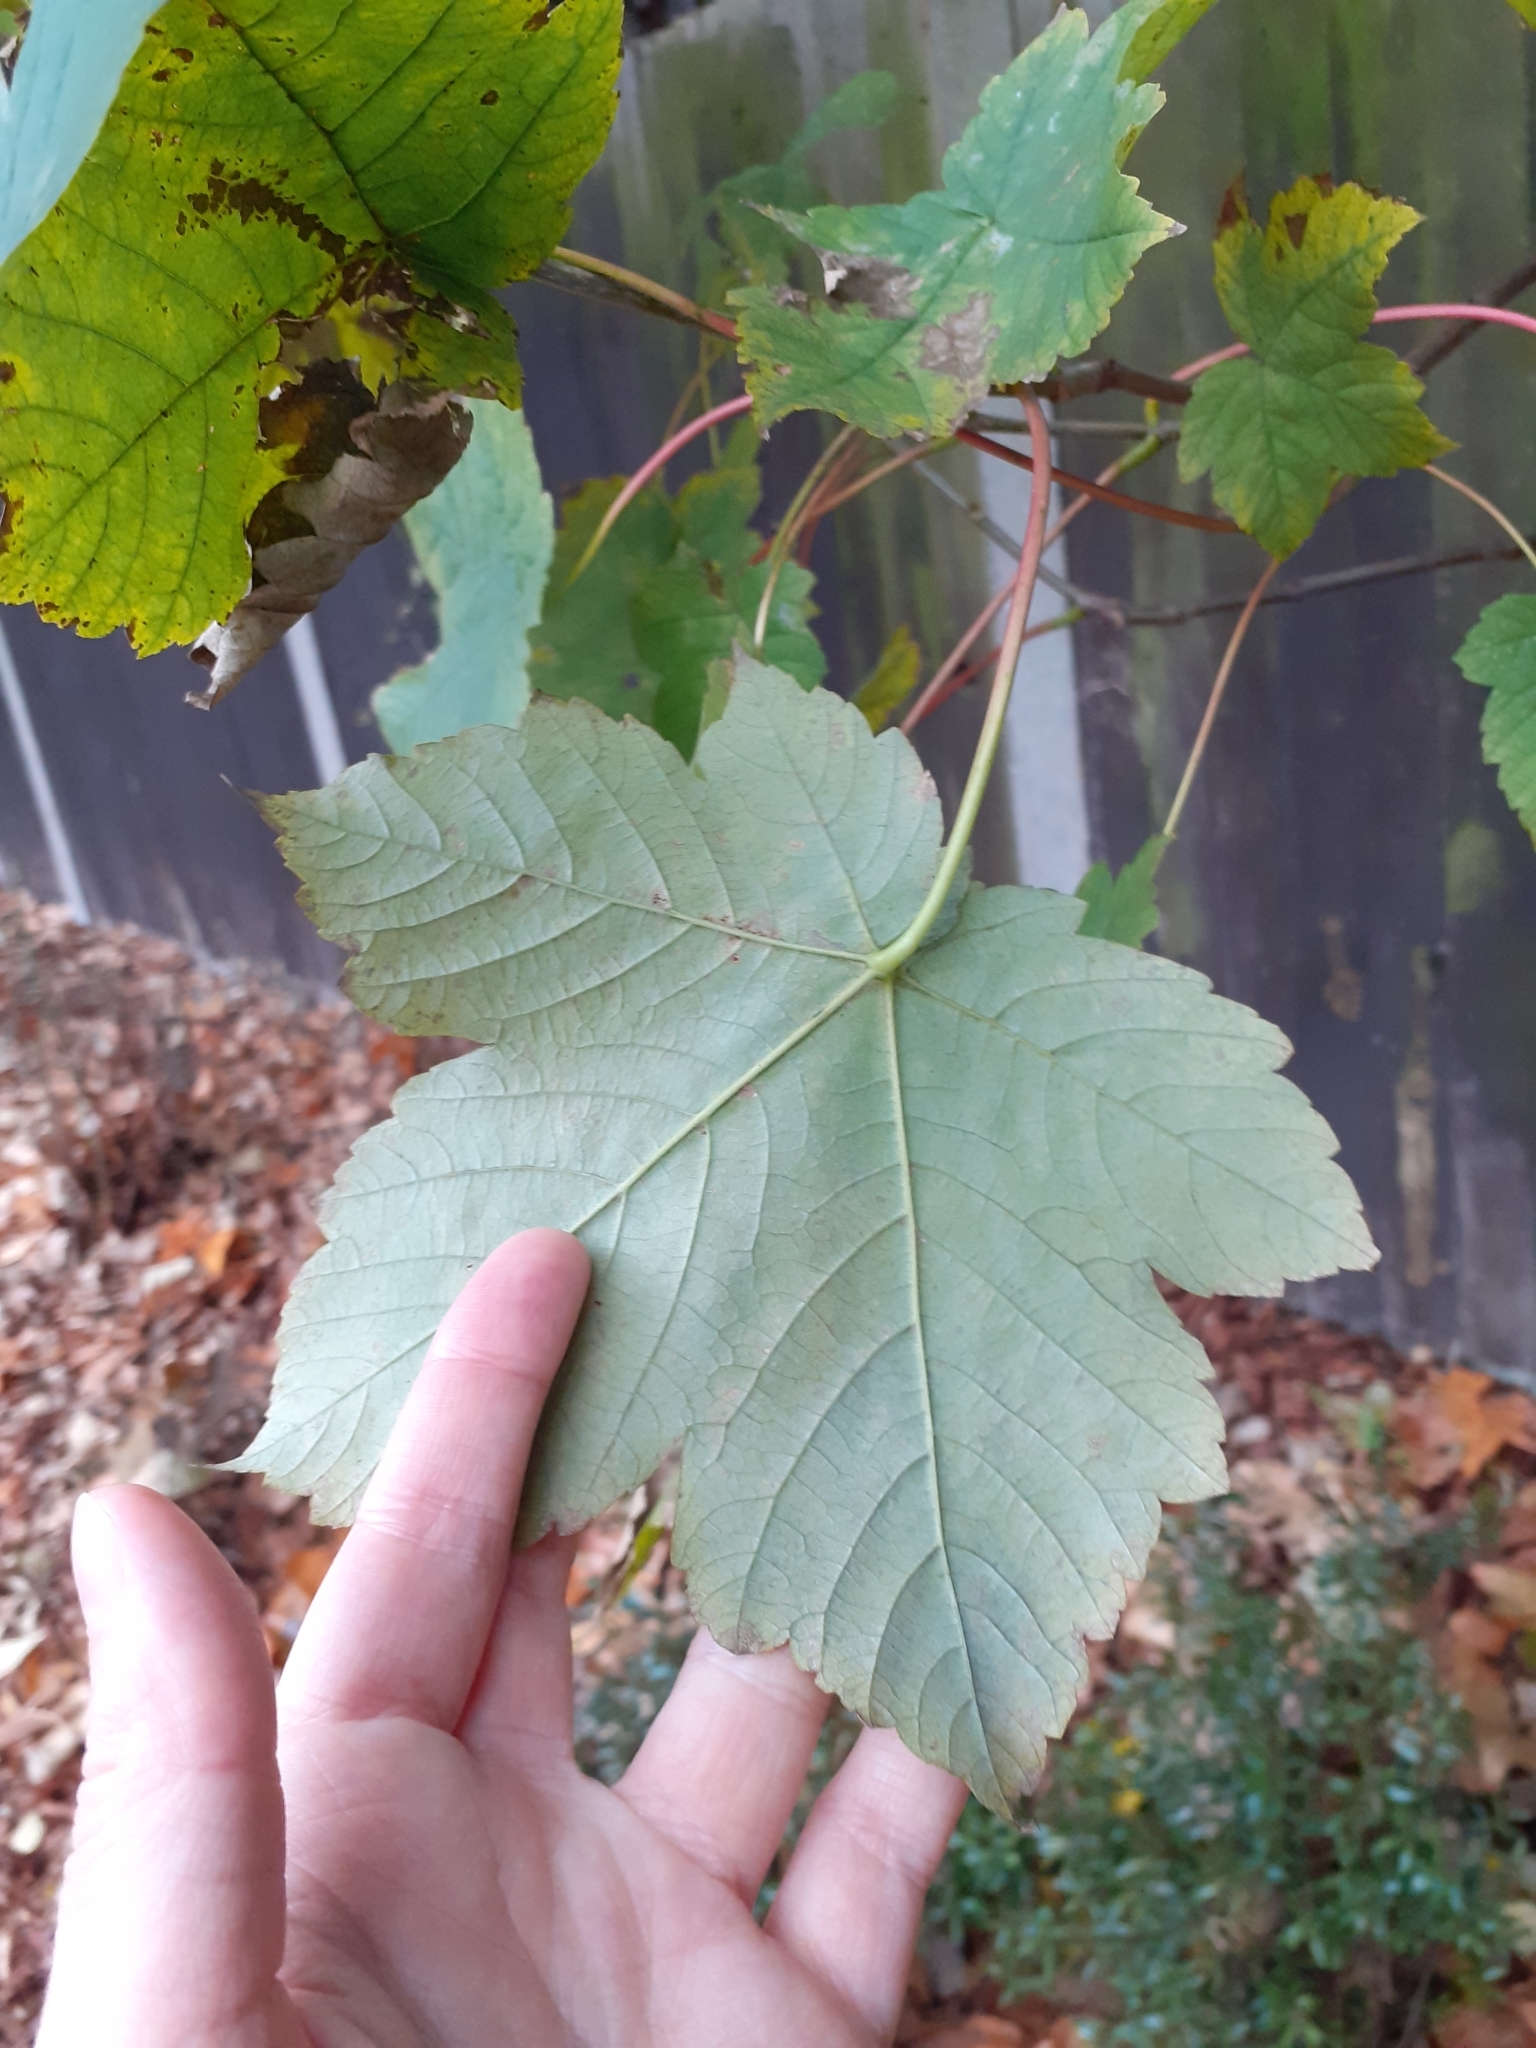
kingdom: Plantae
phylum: Tracheophyta
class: Magnoliopsida
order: Sapindales
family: Sapindaceae
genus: Acer
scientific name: Acer pseudoplatanus
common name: Sycamore
